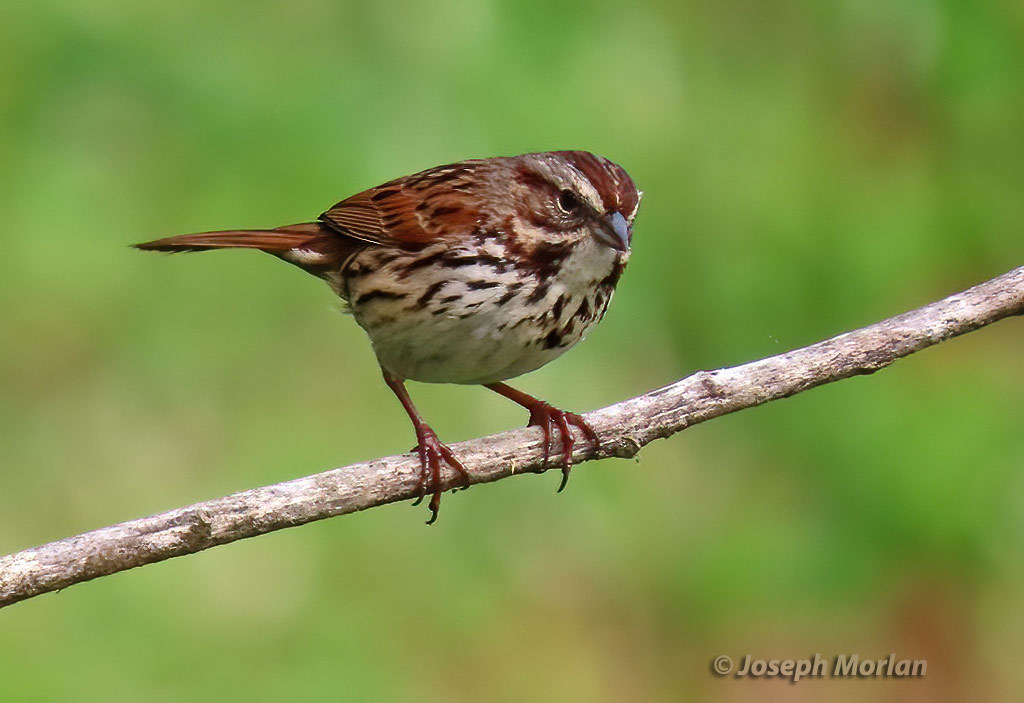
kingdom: Animalia
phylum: Chordata
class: Aves
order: Passeriformes
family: Passerellidae
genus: Melospiza
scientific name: Melospiza melodia
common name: Song sparrow
